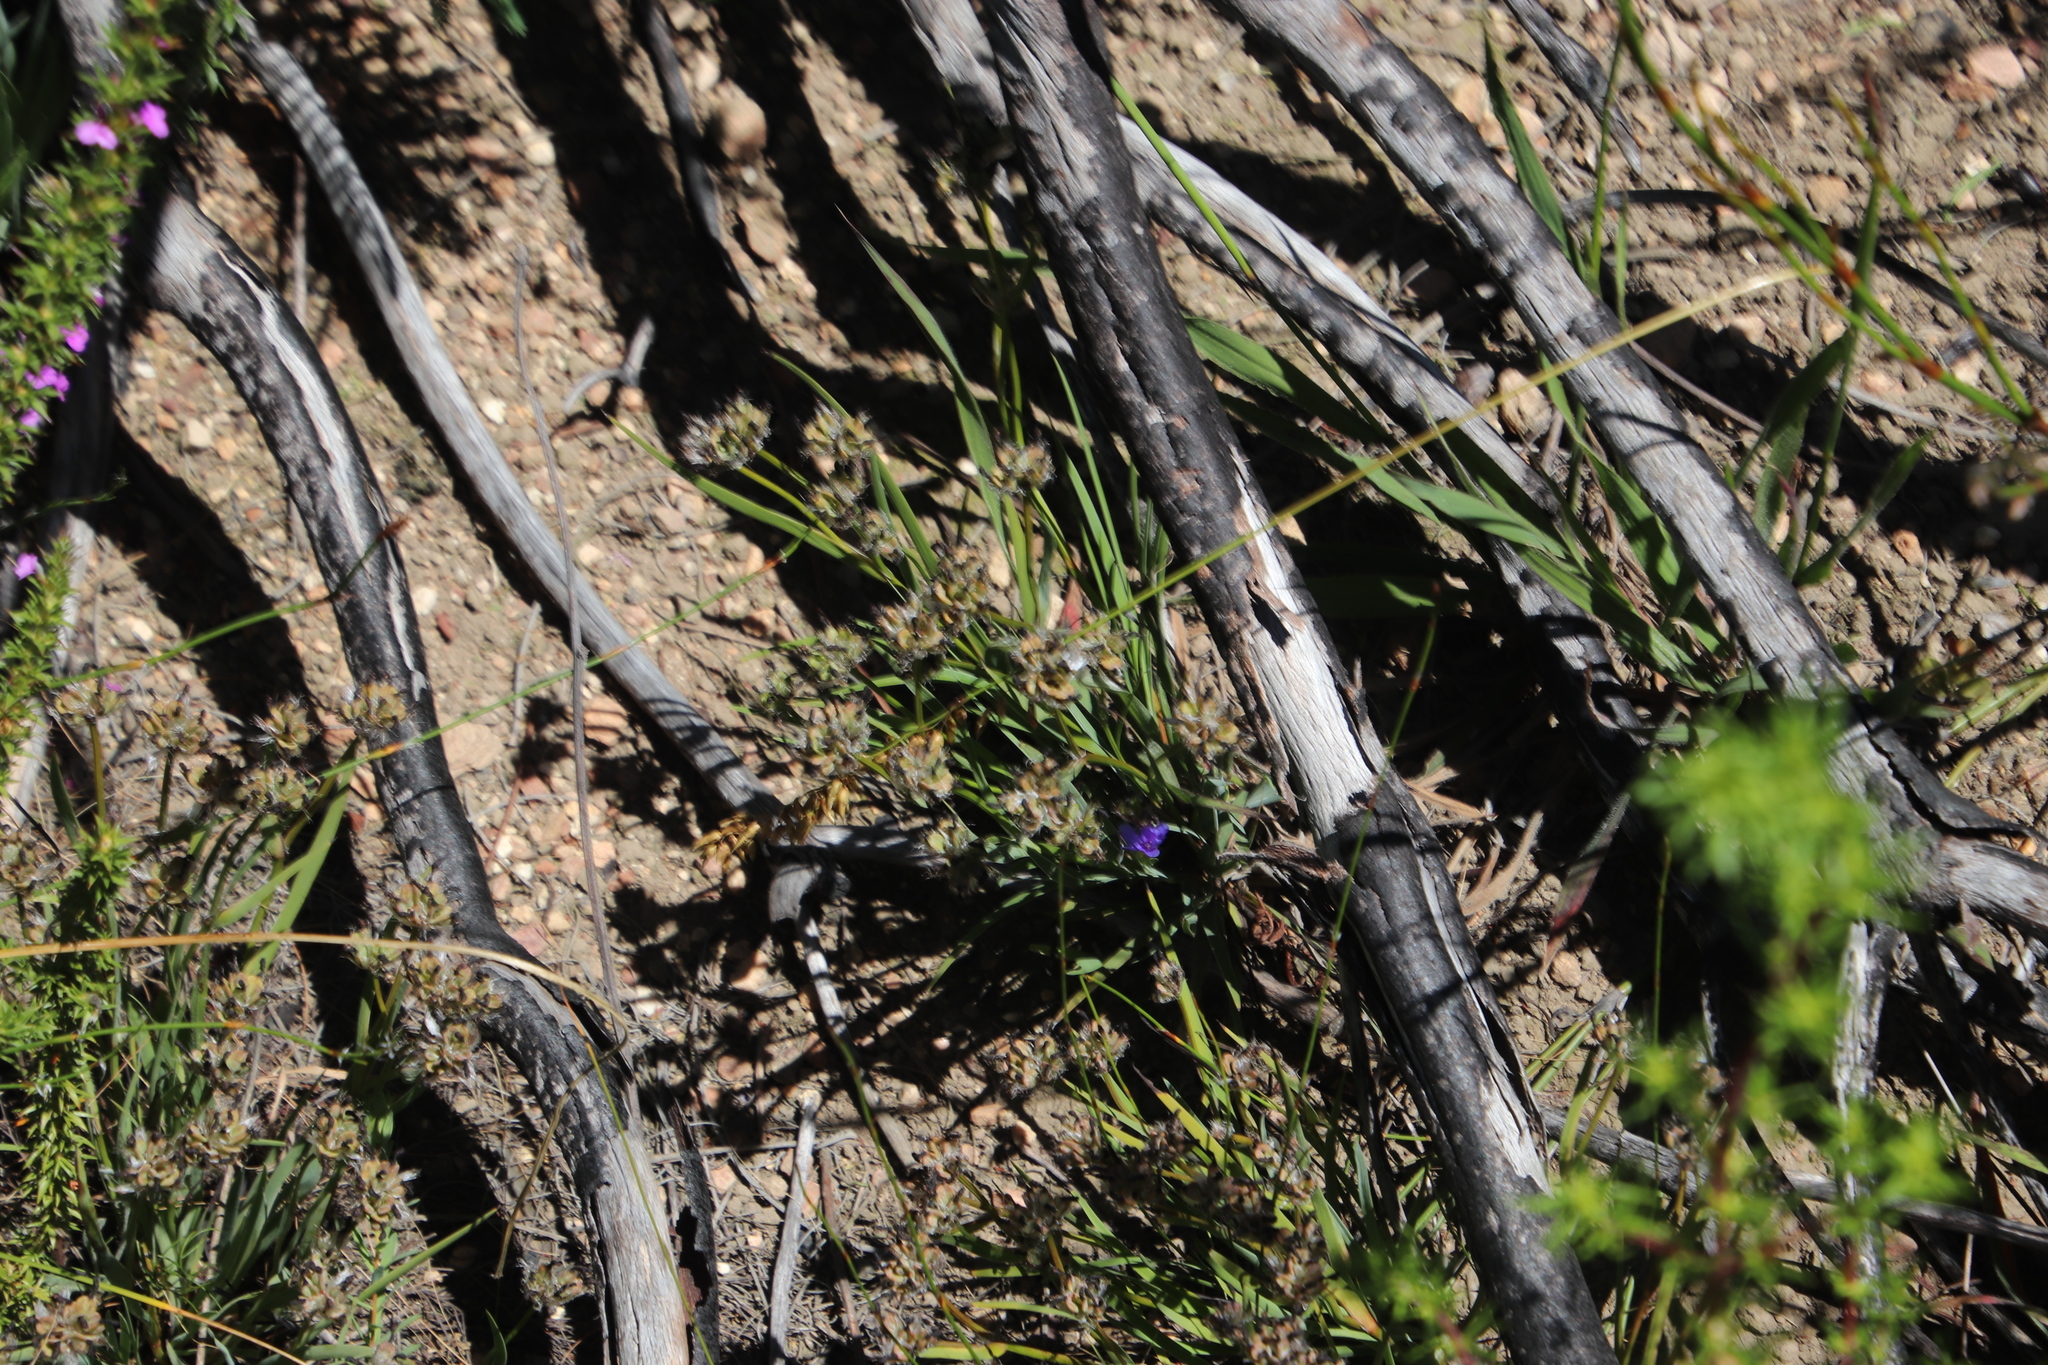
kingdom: Plantae
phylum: Tracheophyta
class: Liliopsida
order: Asparagales
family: Iridaceae
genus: Aristea
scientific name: Aristea africana
